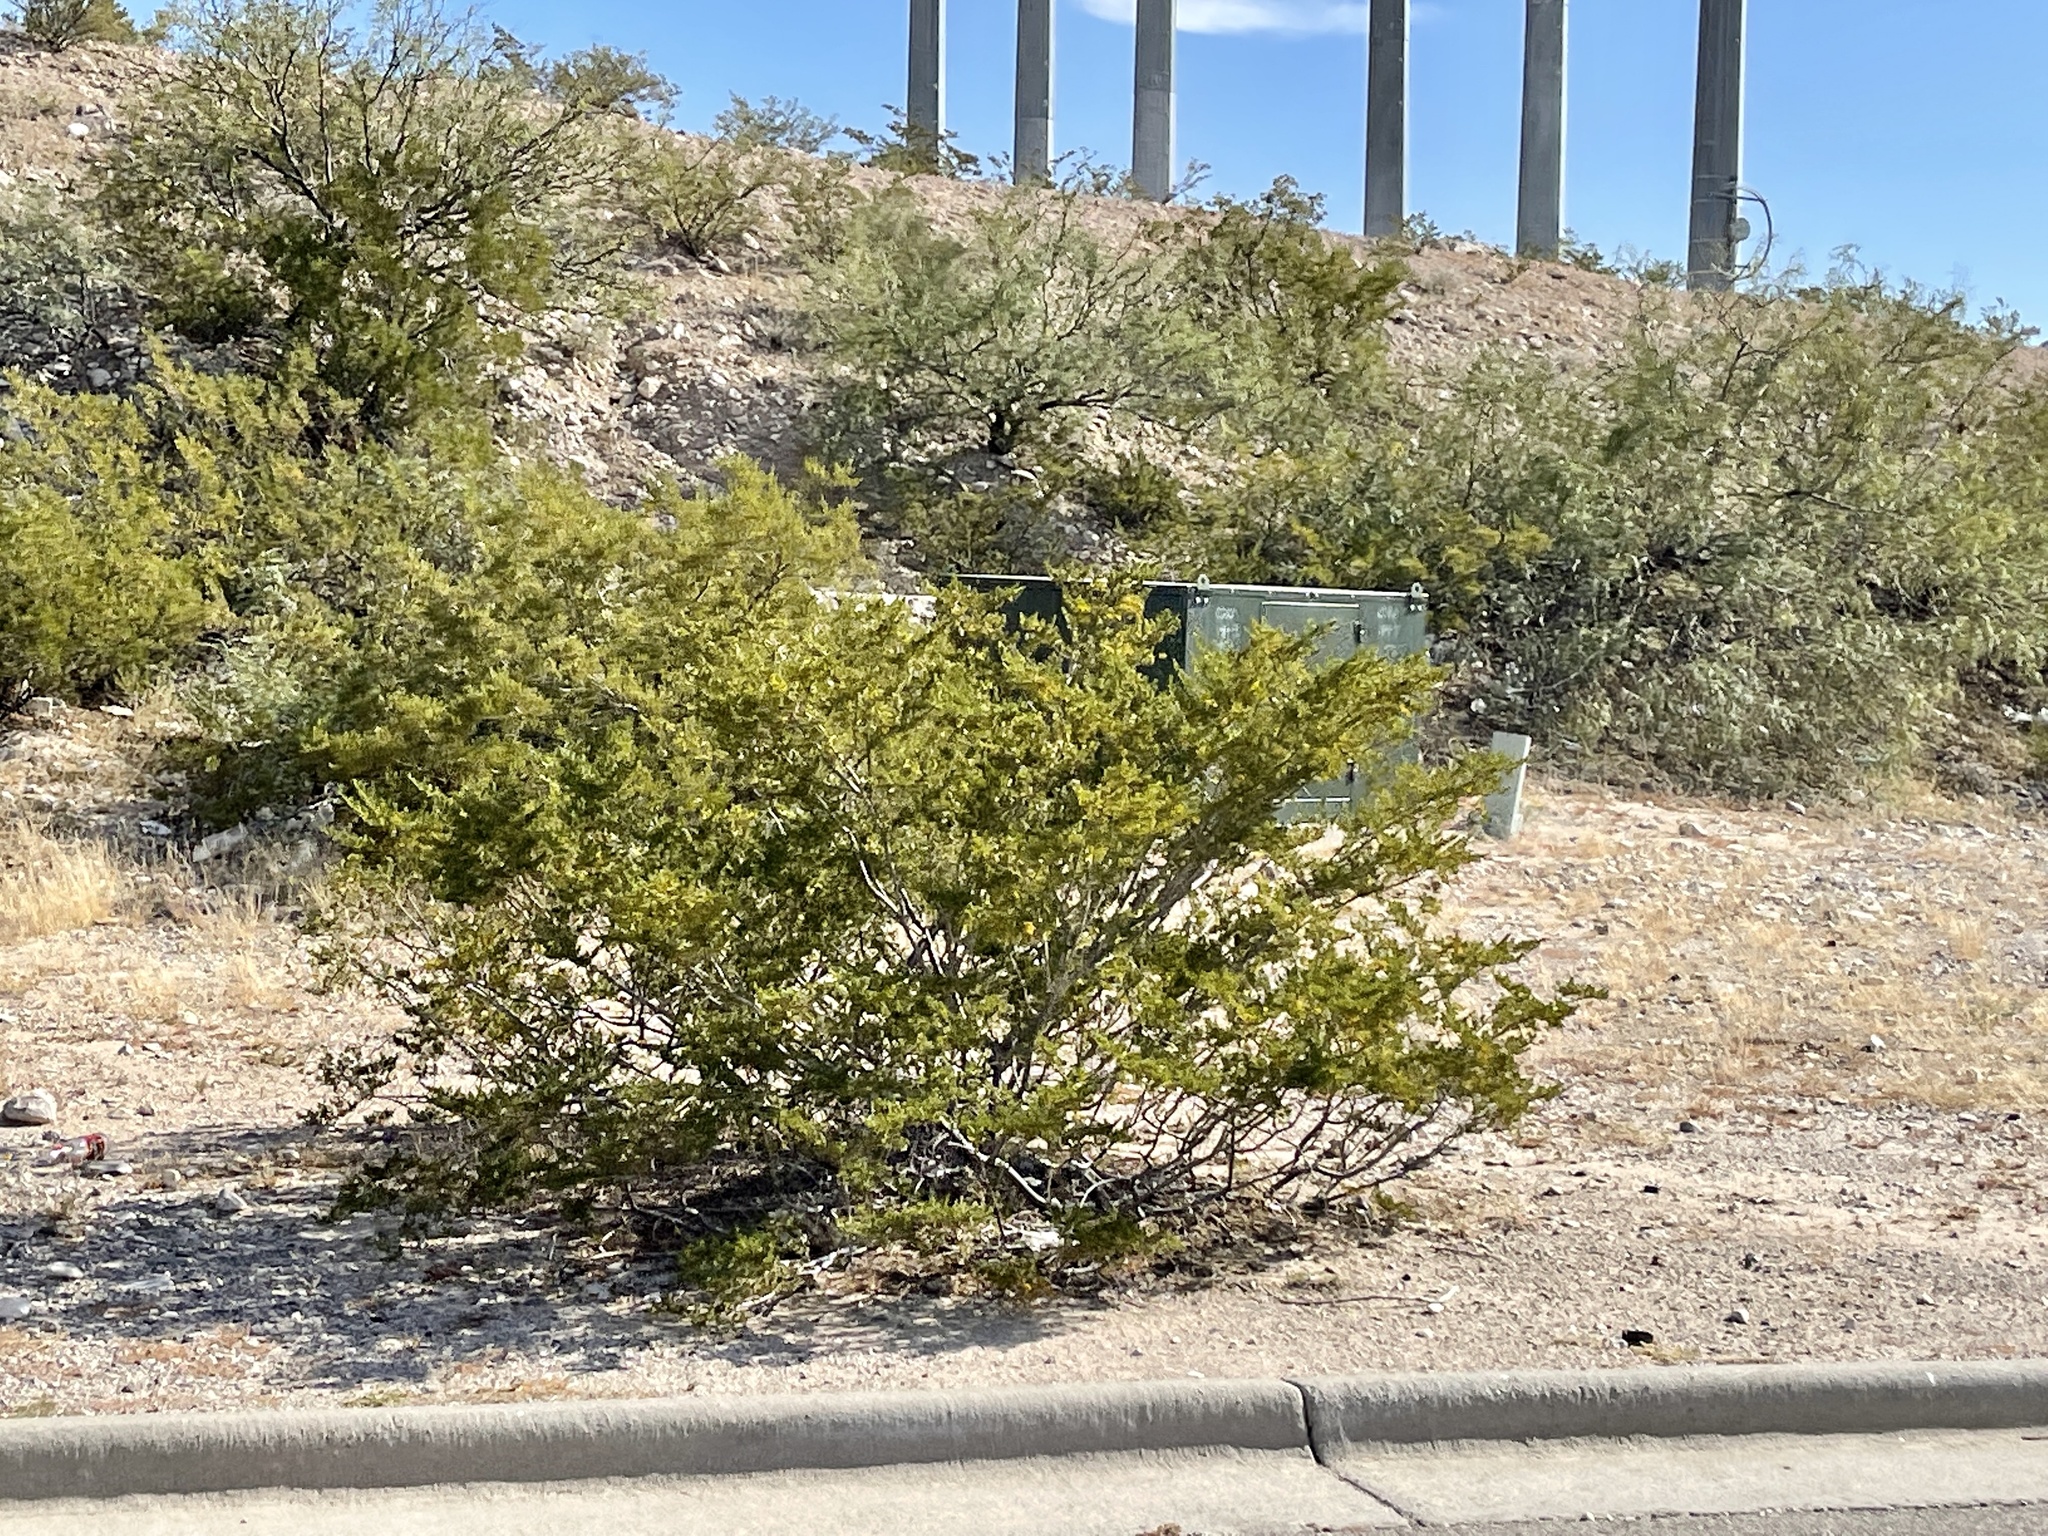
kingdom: Plantae
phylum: Tracheophyta
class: Magnoliopsida
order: Zygophyllales
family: Zygophyllaceae
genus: Larrea
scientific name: Larrea tridentata
